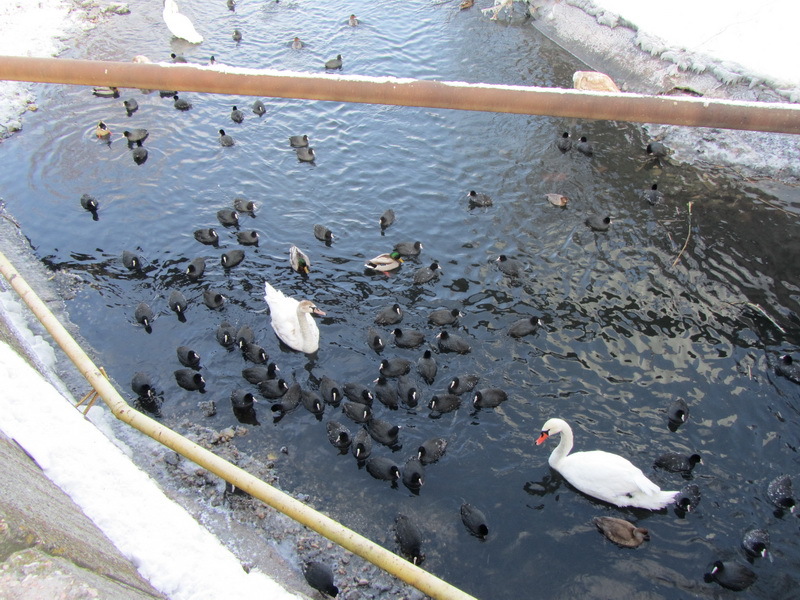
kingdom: Animalia
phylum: Chordata
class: Aves
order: Anseriformes
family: Anatidae
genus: Cygnus
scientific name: Cygnus olor
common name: Mute swan
